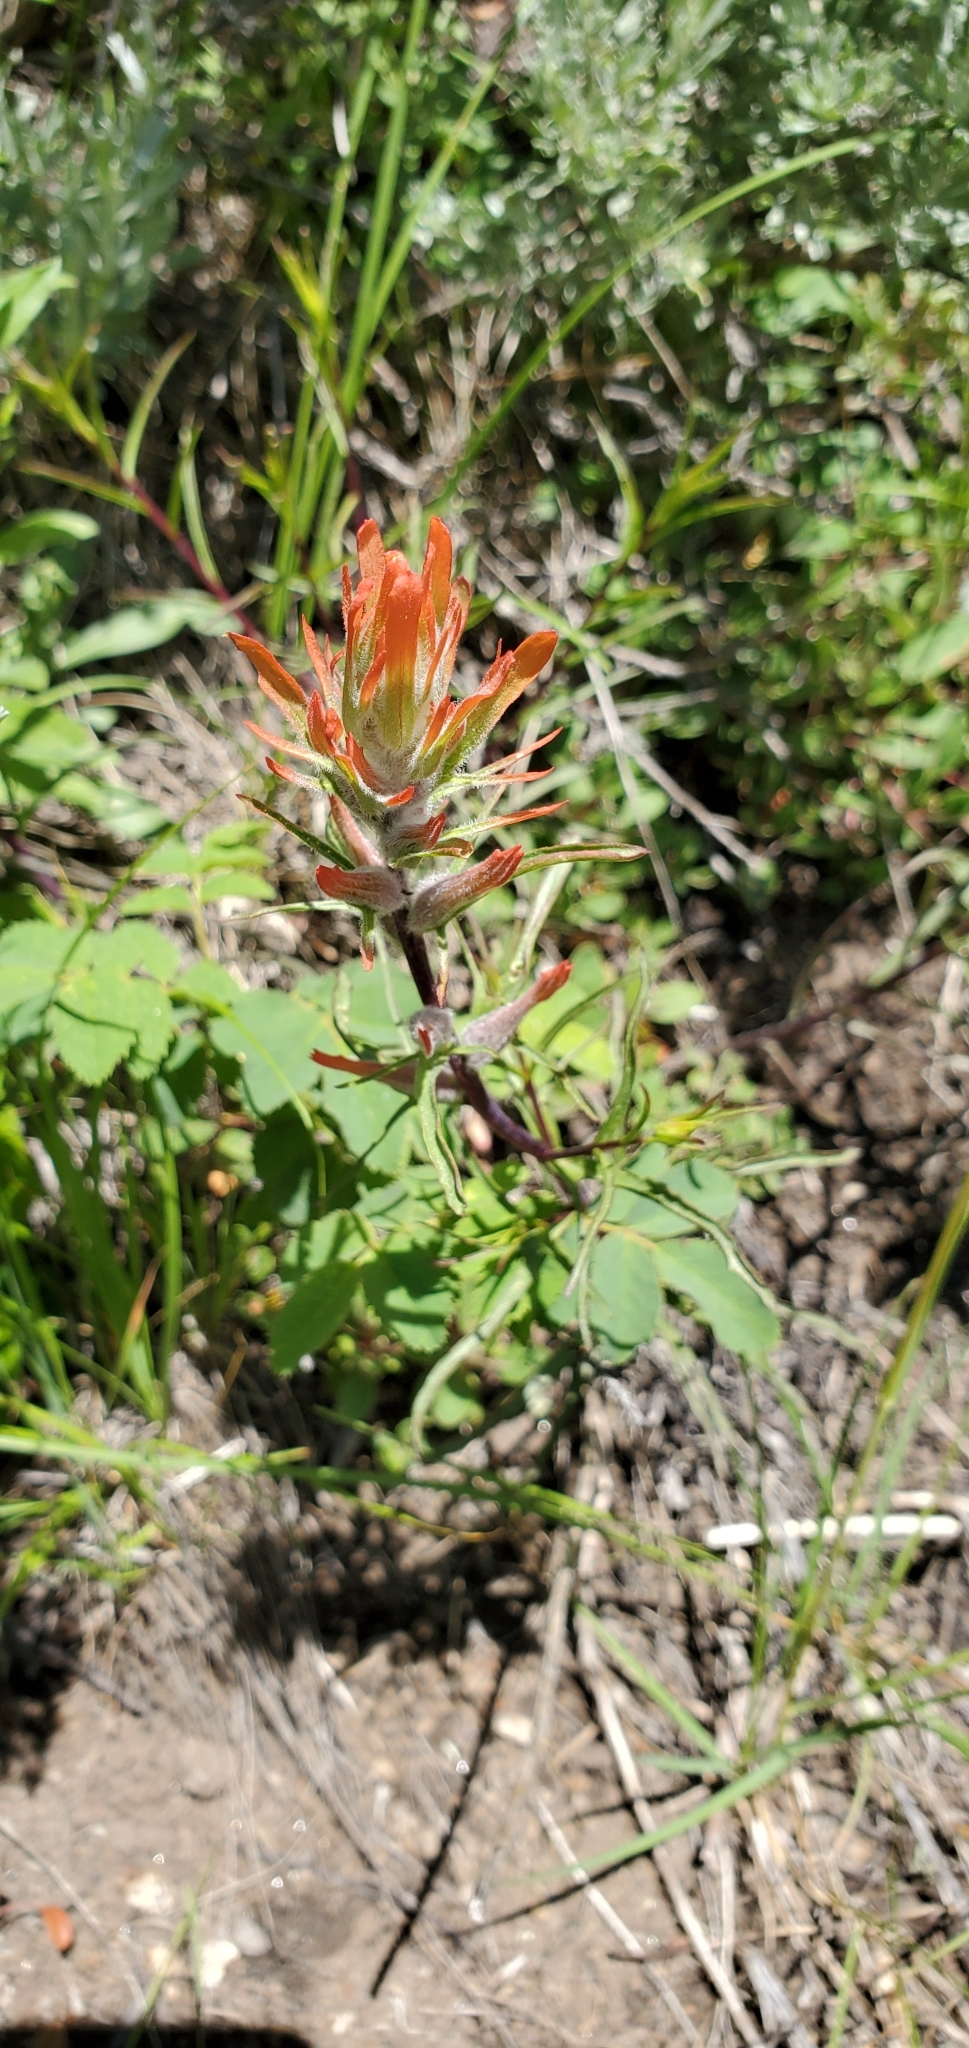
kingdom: Plantae
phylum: Tracheophyta
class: Magnoliopsida
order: Lamiales
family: Orobanchaceae
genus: Castilleja
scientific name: Castilleja linariifolia
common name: Wyoming paintbrush
